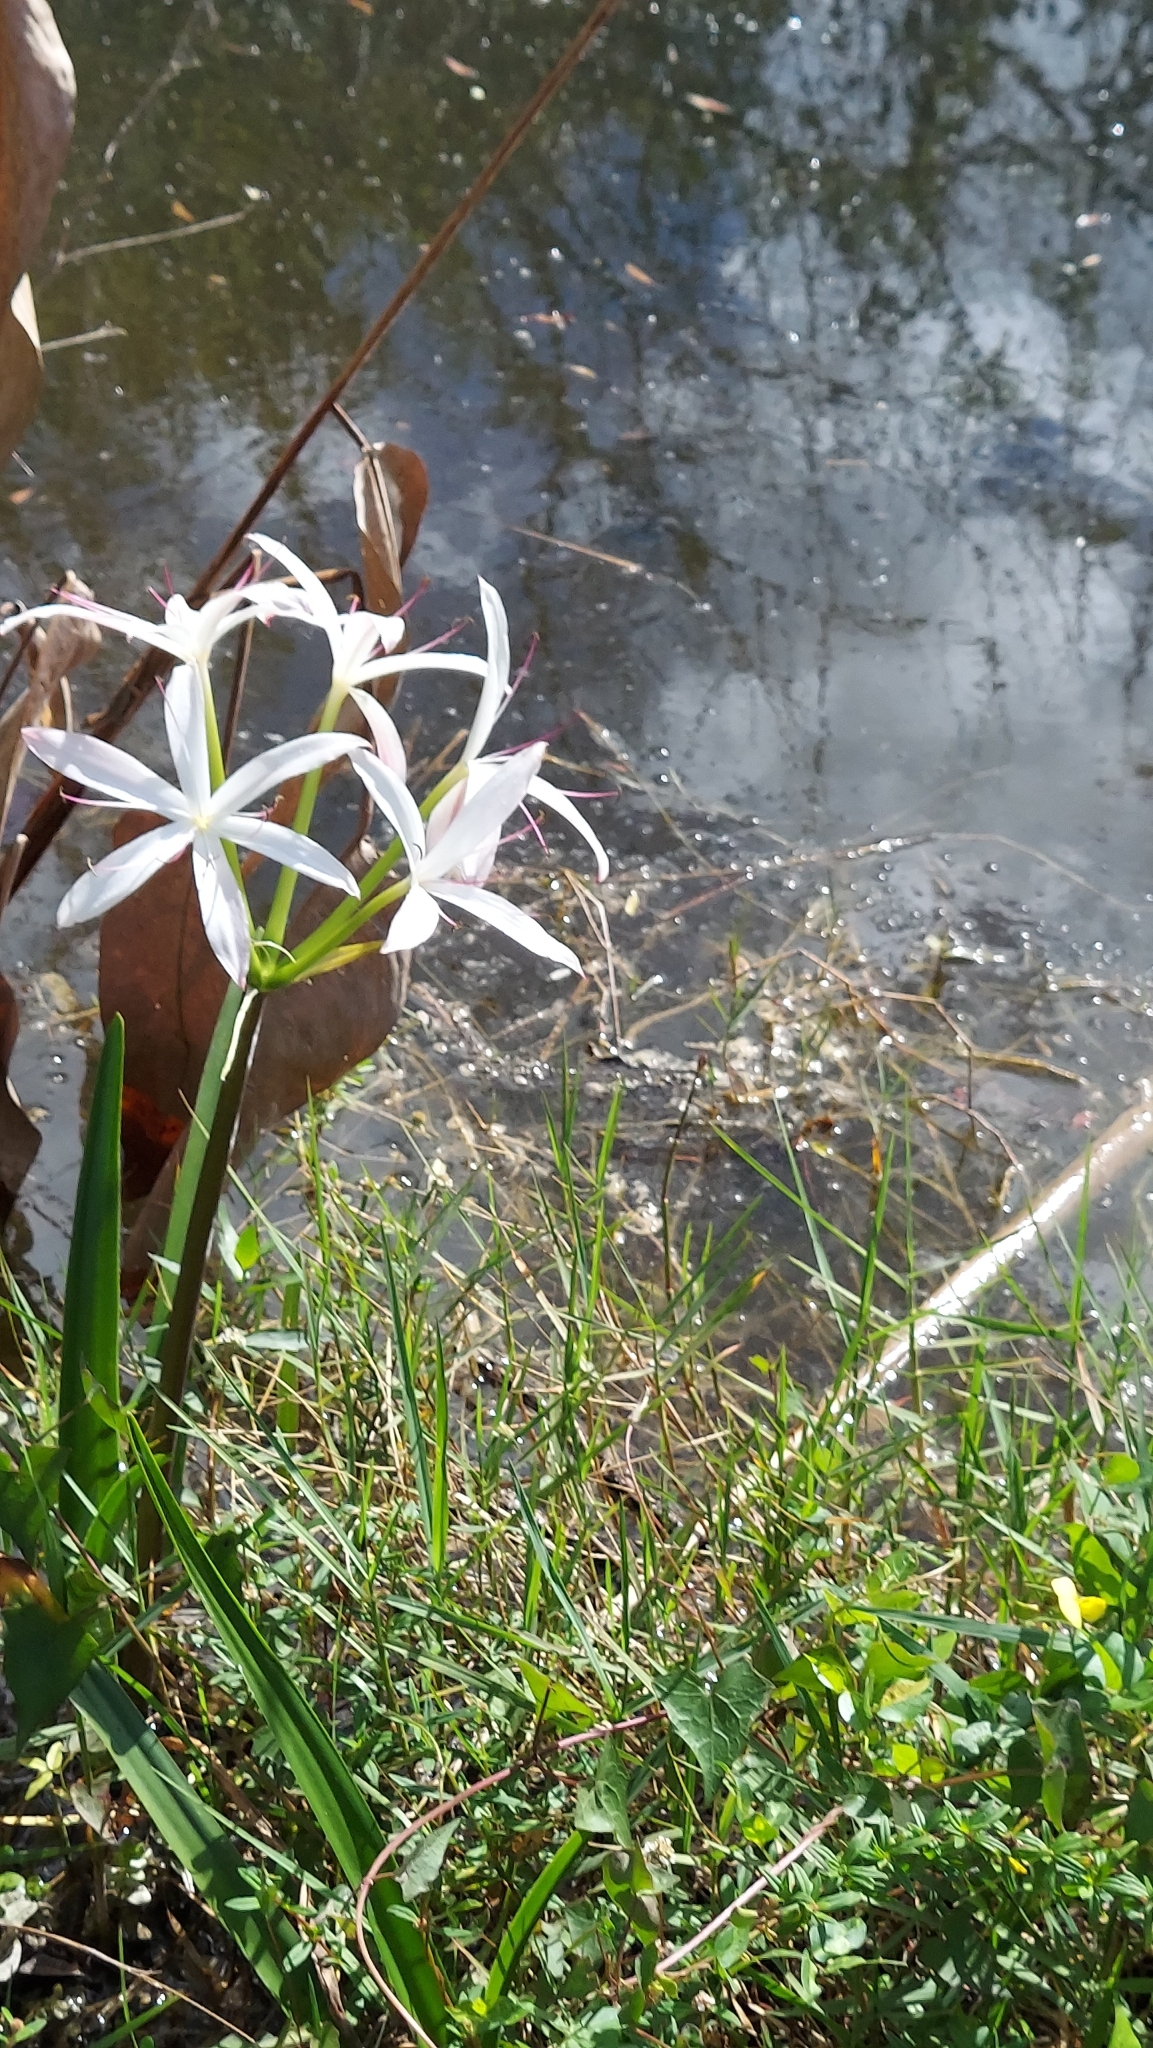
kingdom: Plantae
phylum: Tracheophyta
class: Liliopsida
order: Asparagales
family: Amaryllidaceae
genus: Crinum
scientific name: Crinum americanum
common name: Florida swamp-lily
